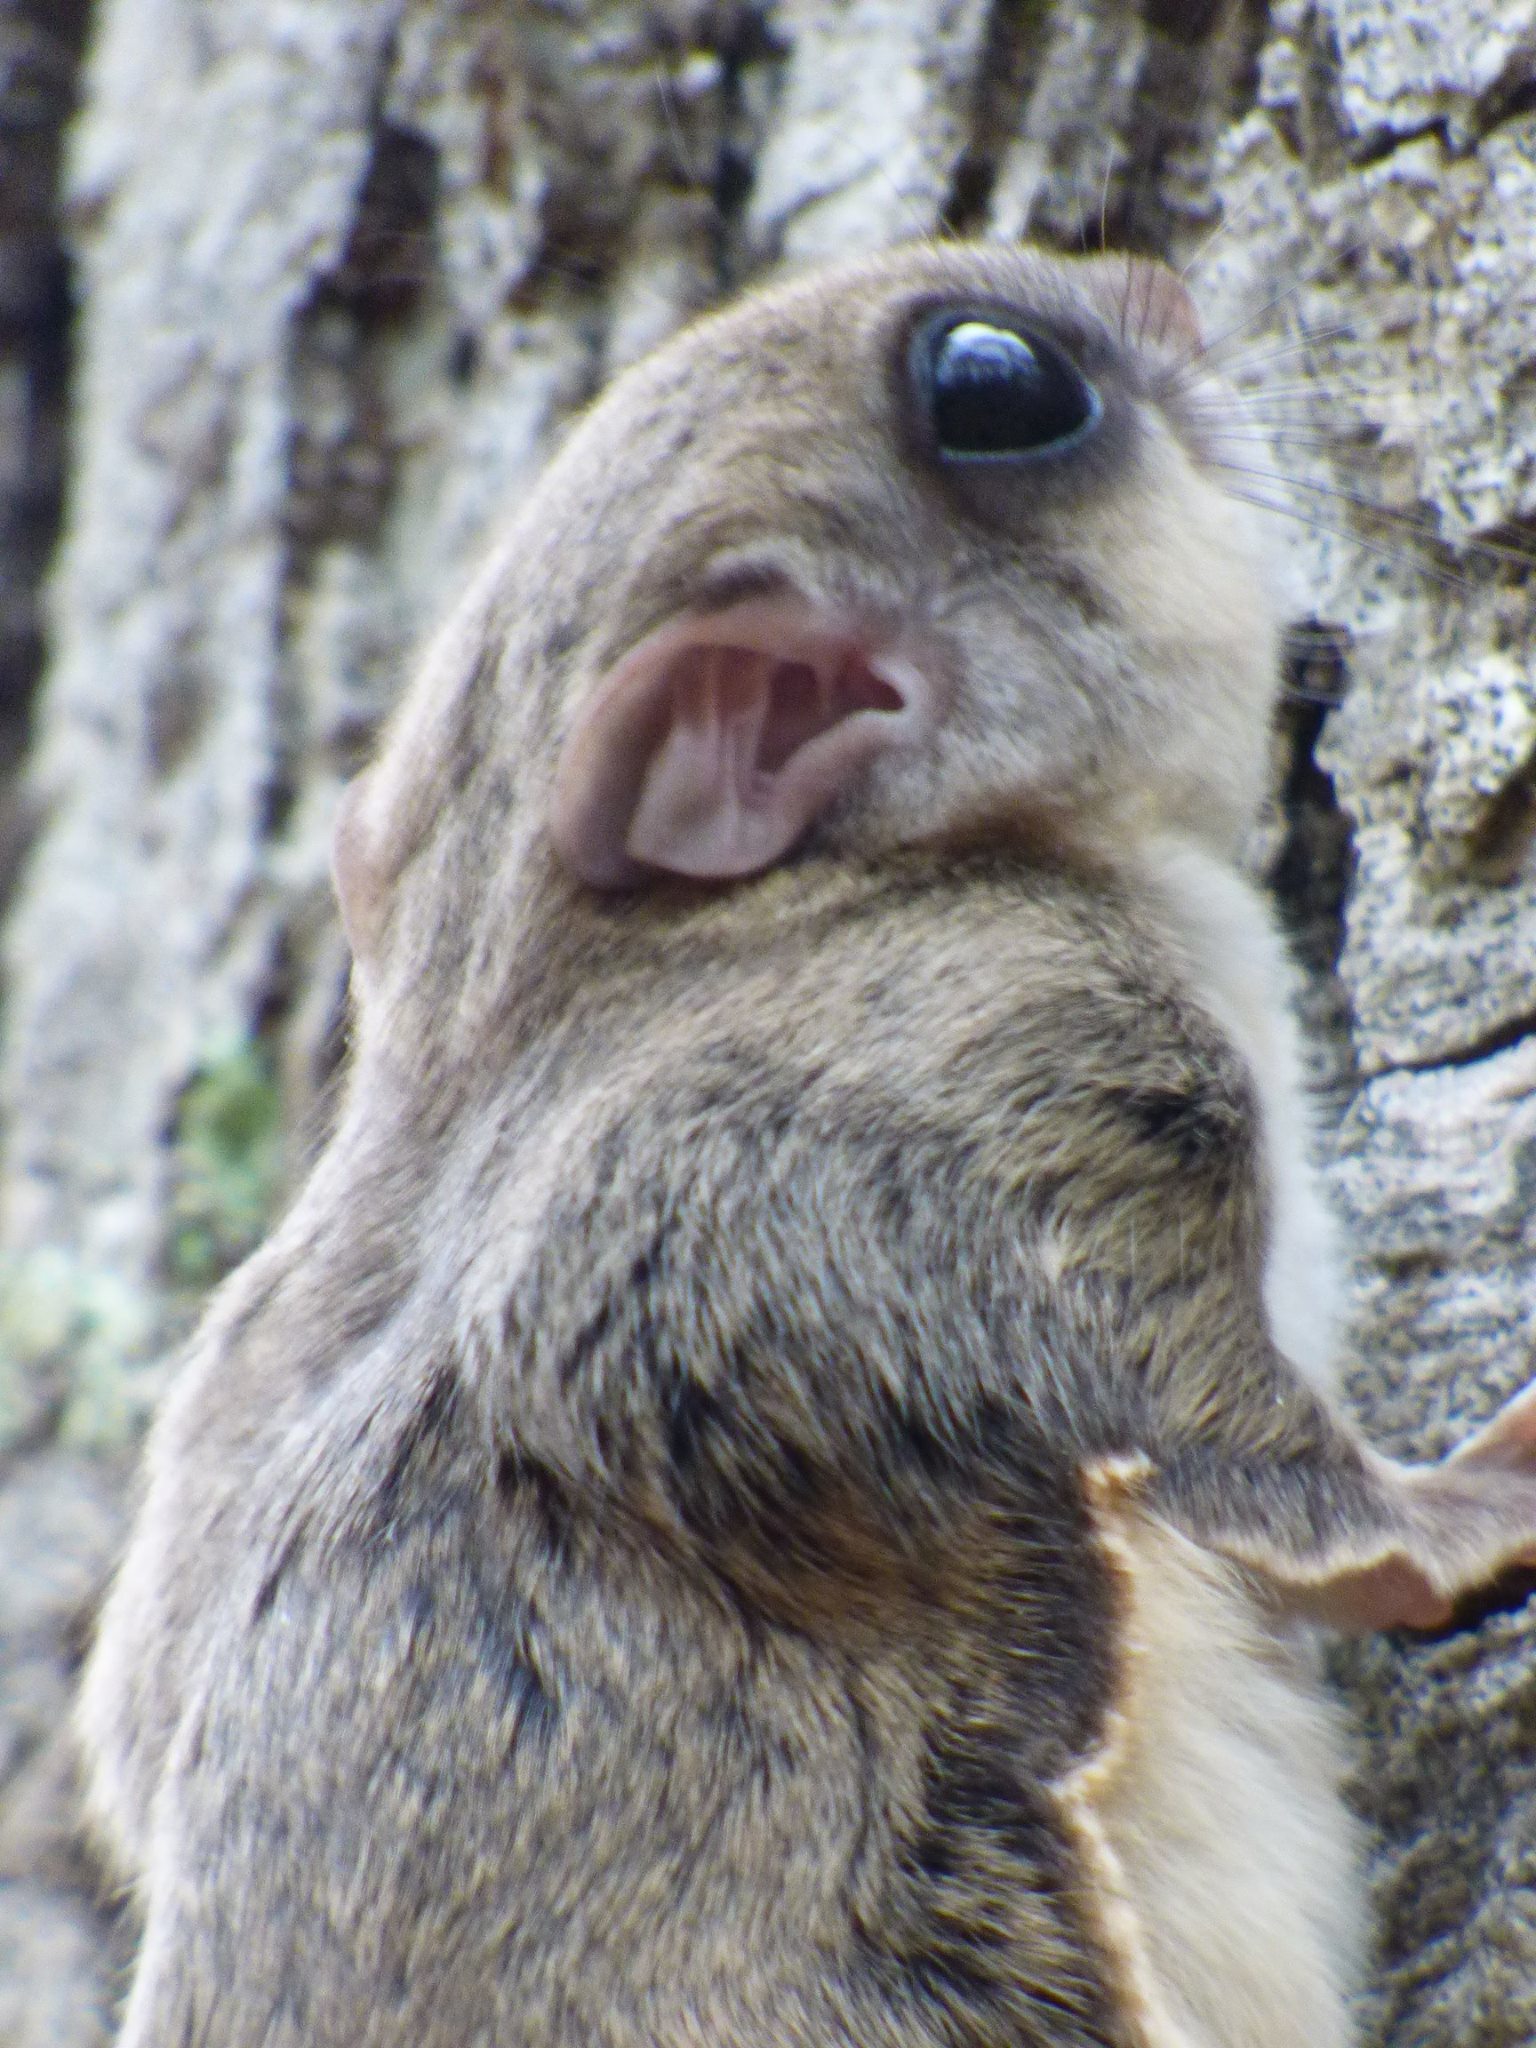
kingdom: Animalia
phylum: Chordata
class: Mammalia
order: Rodentia
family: Sciuridae
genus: Glaucomys
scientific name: Glaucomys volans
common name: Southern flying squirrel
